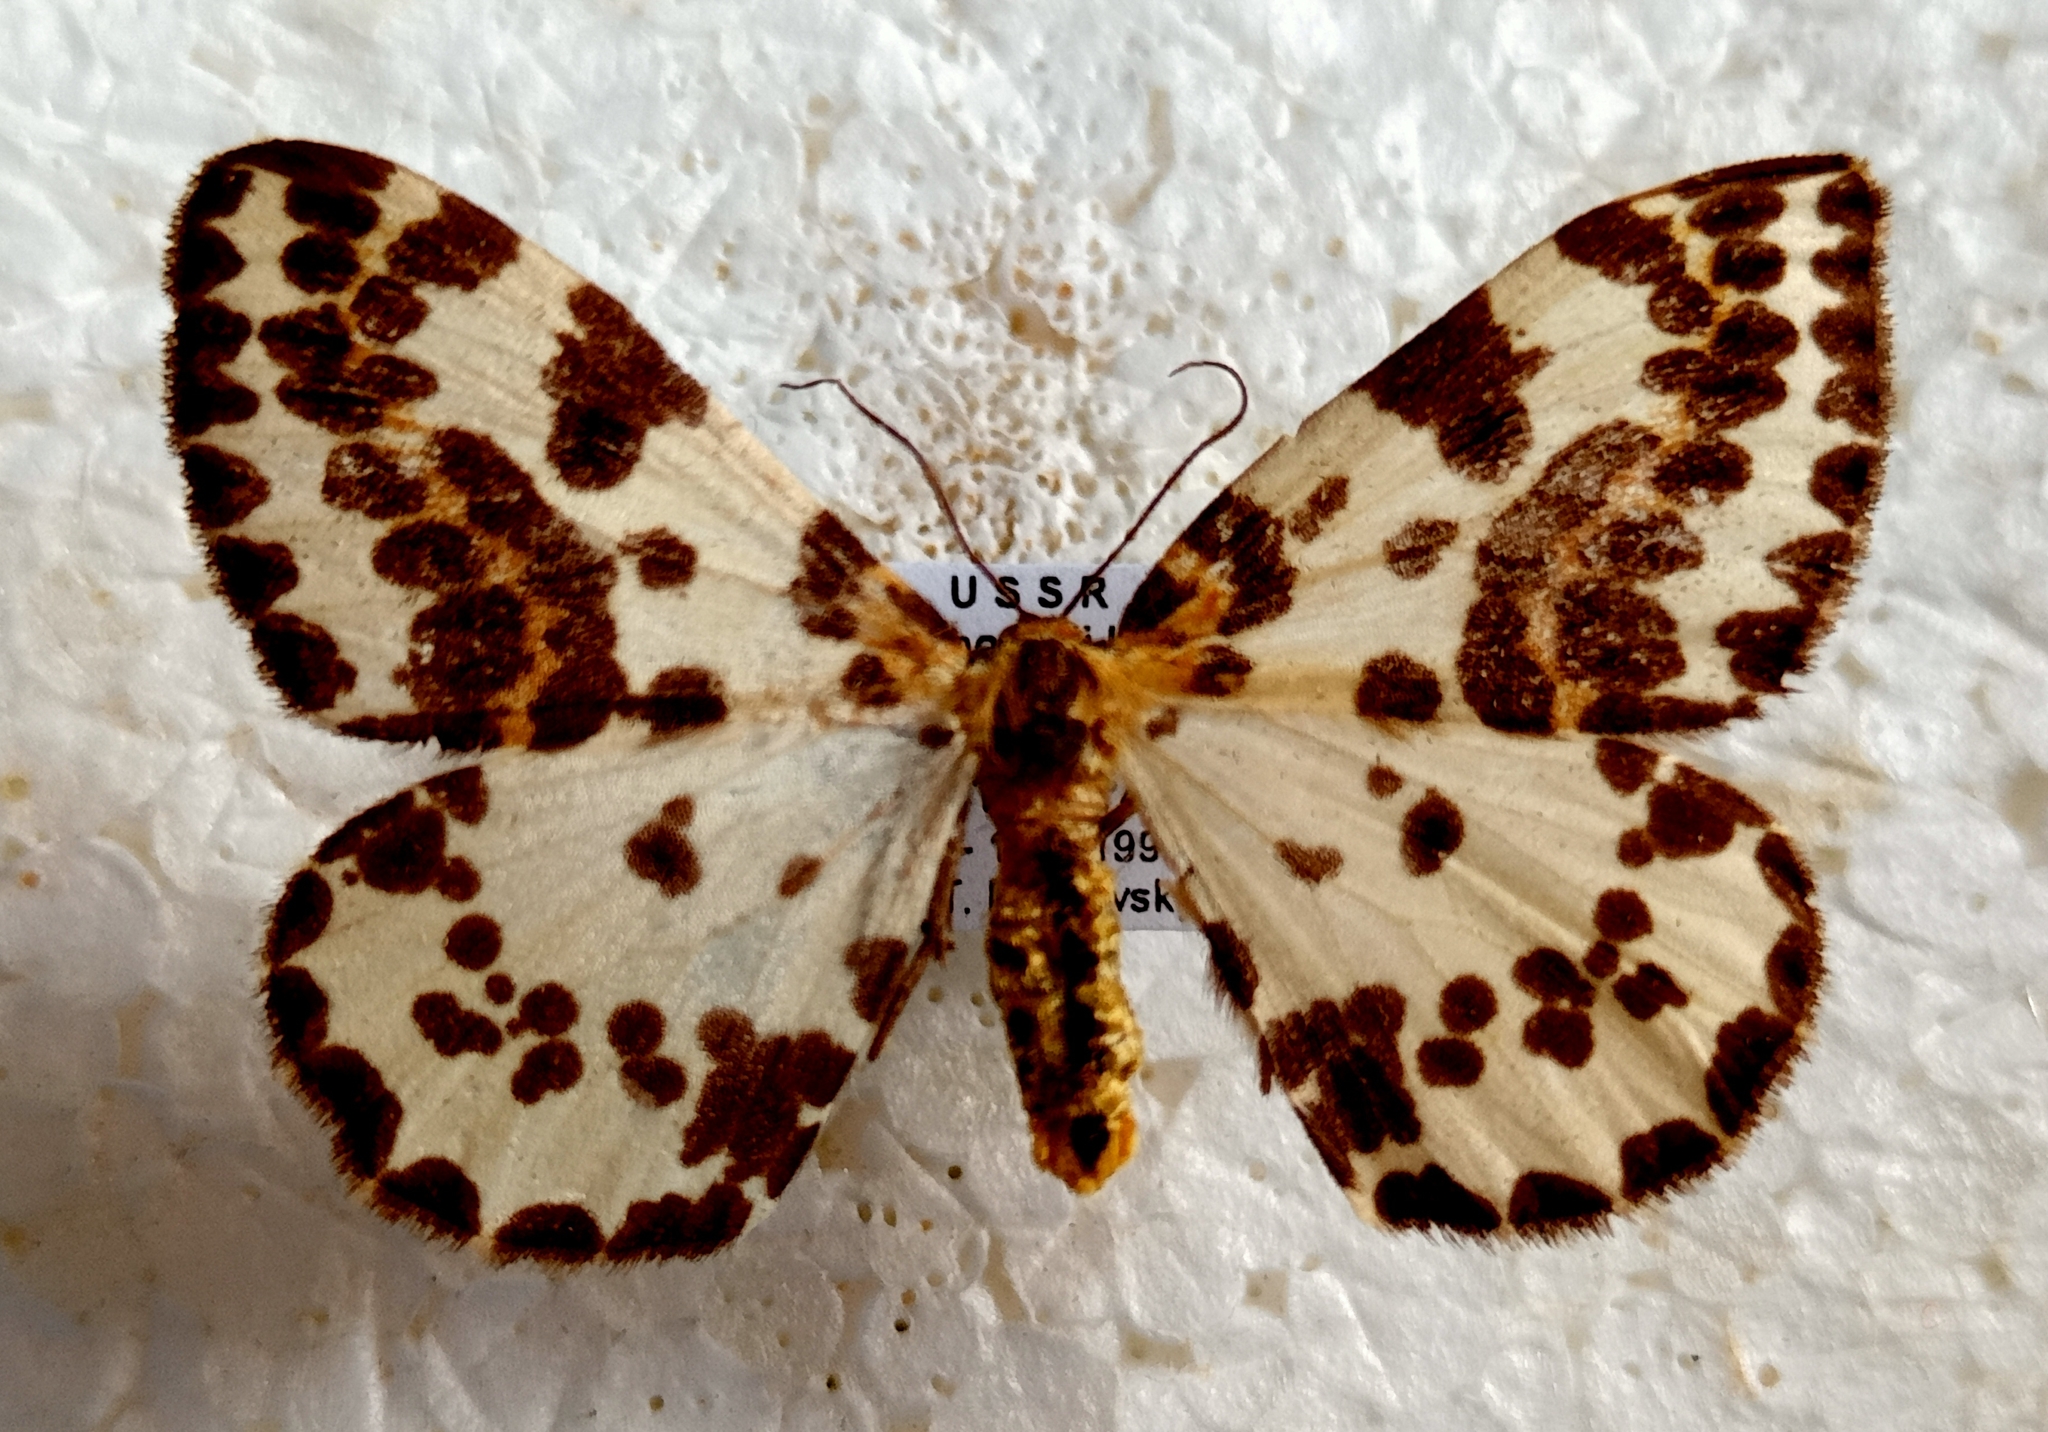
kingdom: Animalia
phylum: Arthropoda
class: Insecta
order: Lepidoptera
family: Geometridae
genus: Abraxas
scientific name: Abraxas grossulariata
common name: Magpie
